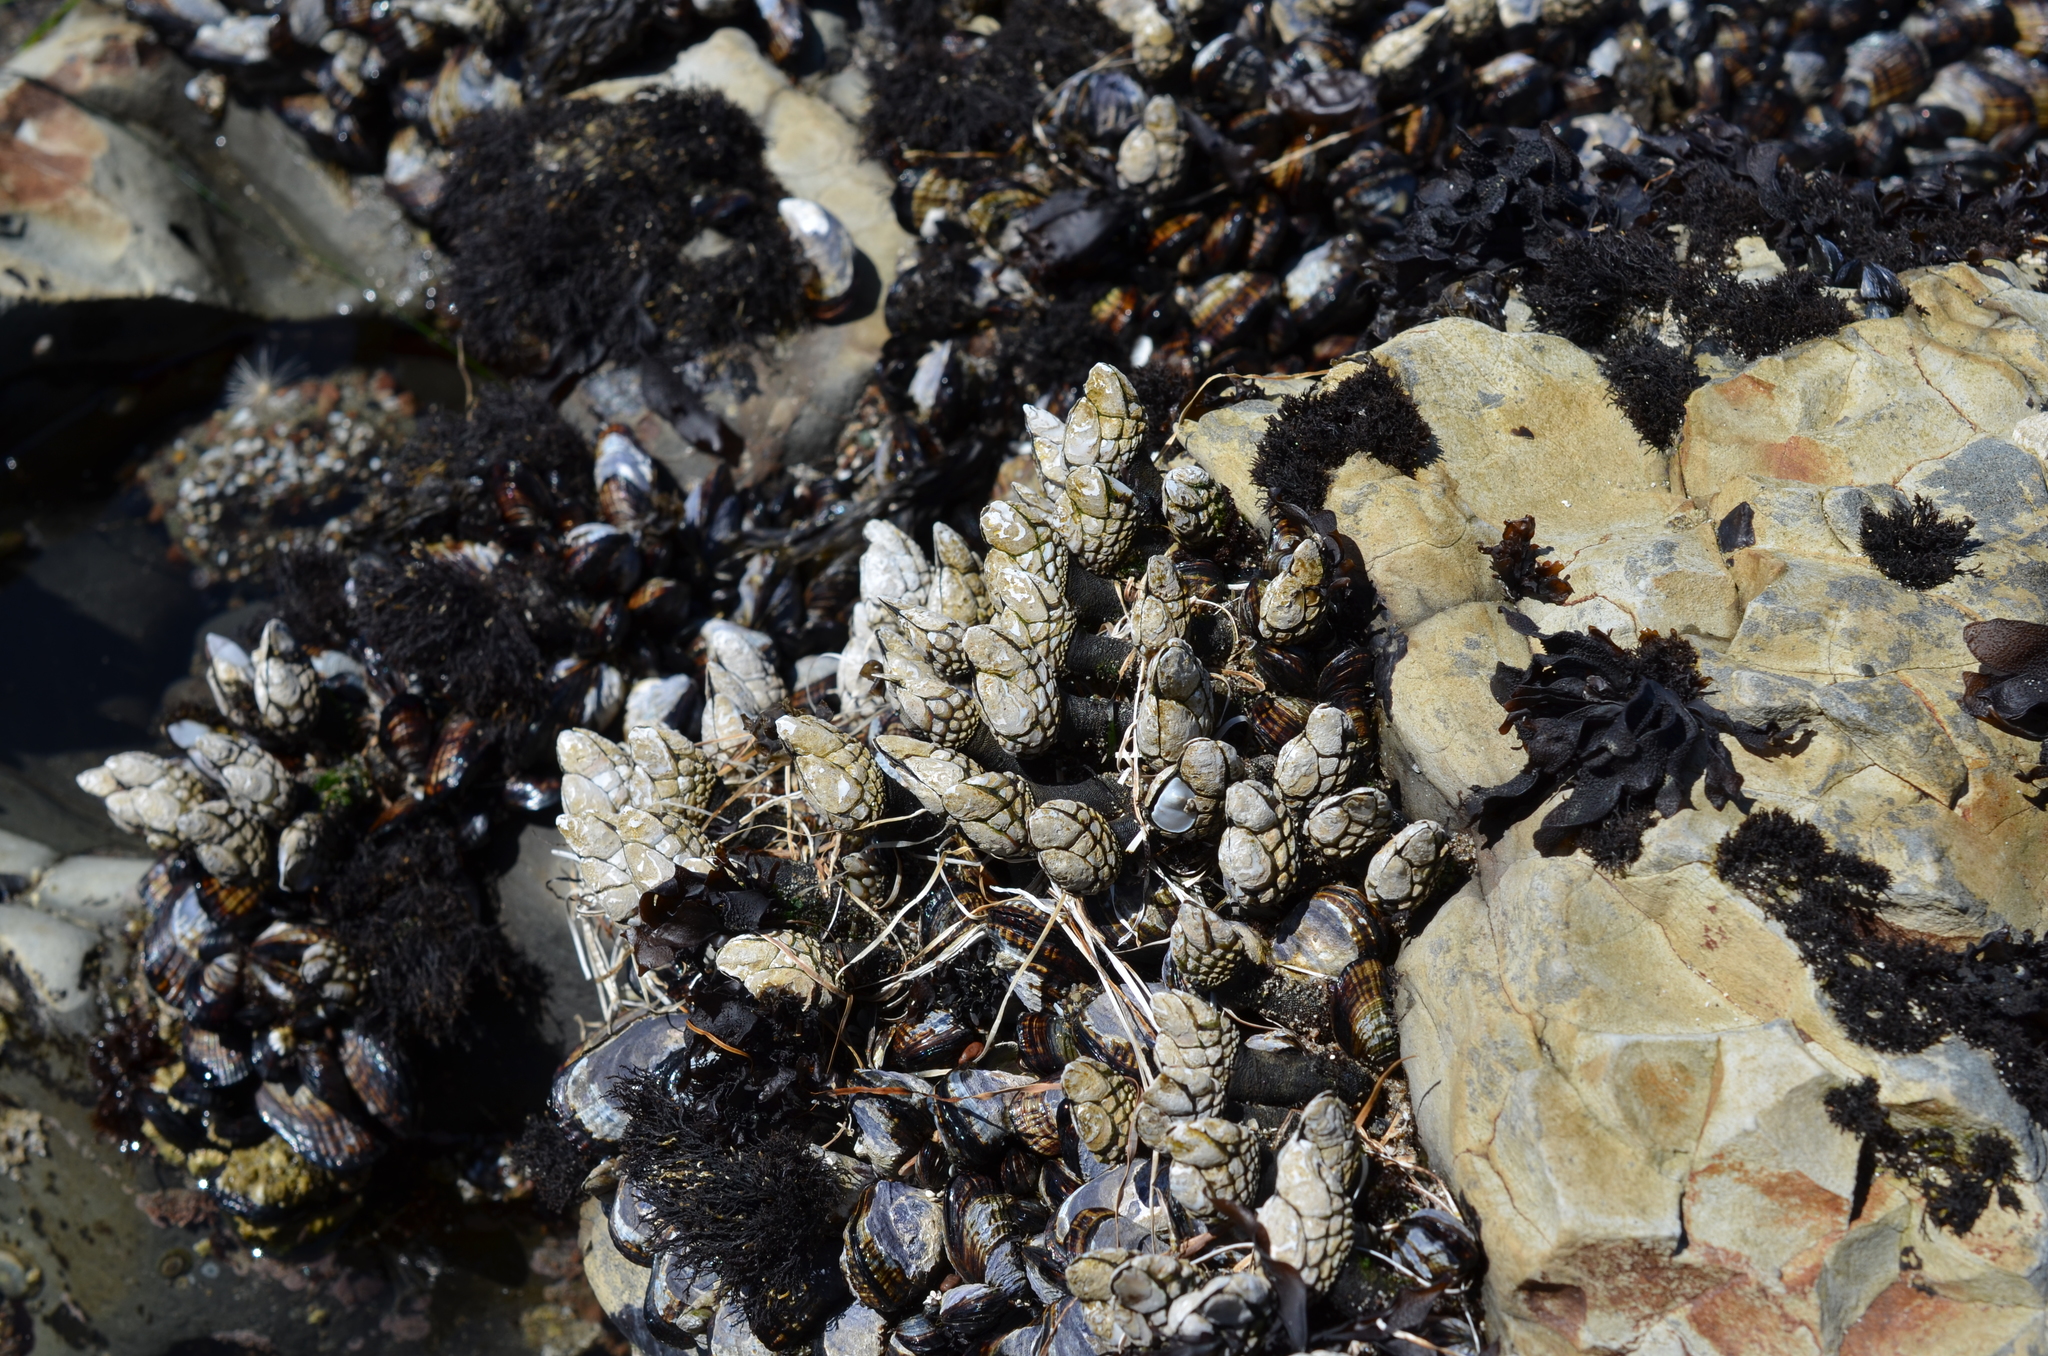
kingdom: Animalia
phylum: Arthropoda
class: Maxillopoda
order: Pedunculata
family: Pollicipedidae
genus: Pollicipes
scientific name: Pollicipes polymerus
